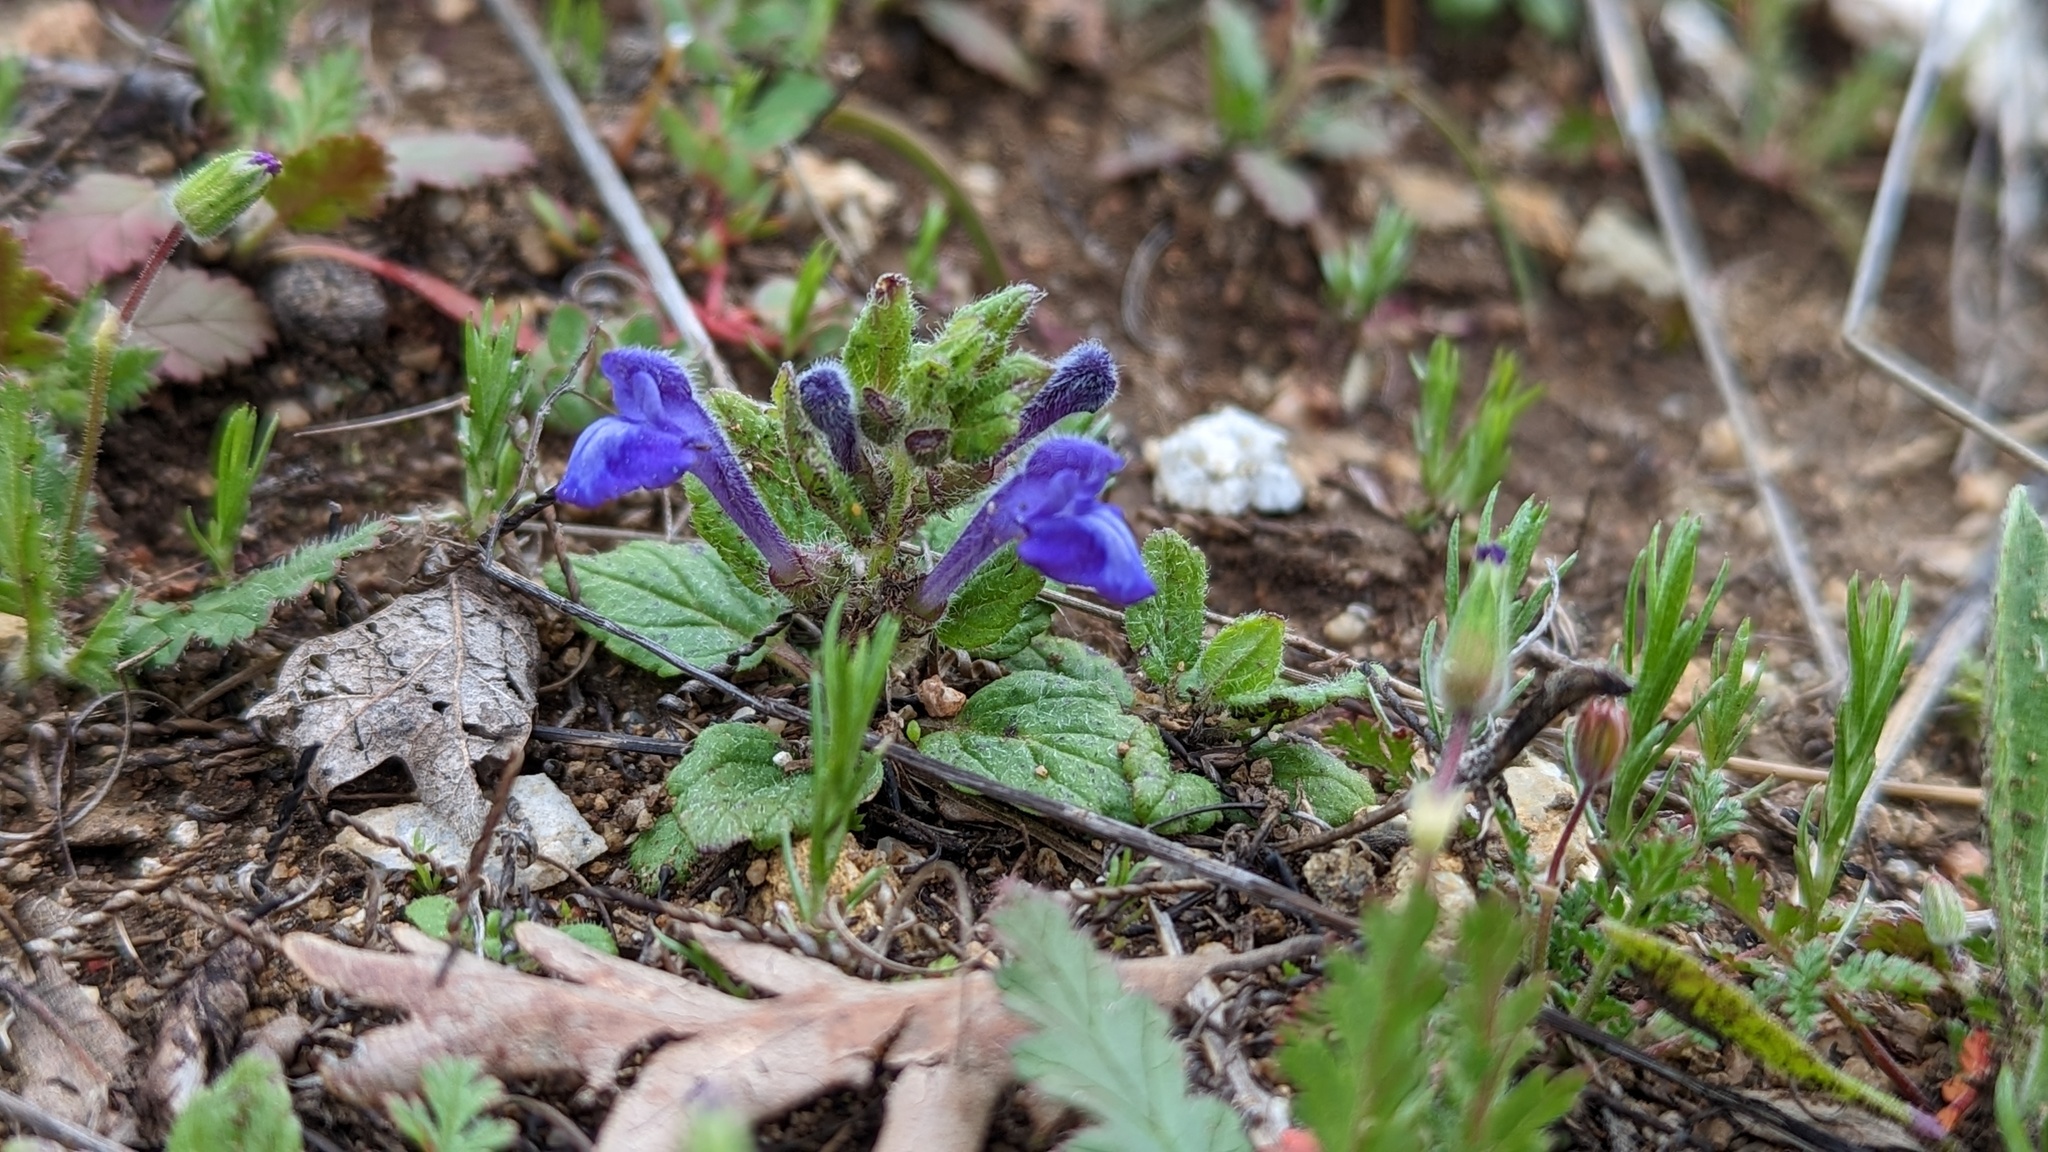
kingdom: Plantae
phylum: Tracheophyta
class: Magnoliopsida
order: Lamiales
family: Lamiaceae
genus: Scutellaria
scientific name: Scutellaria tuberosa
